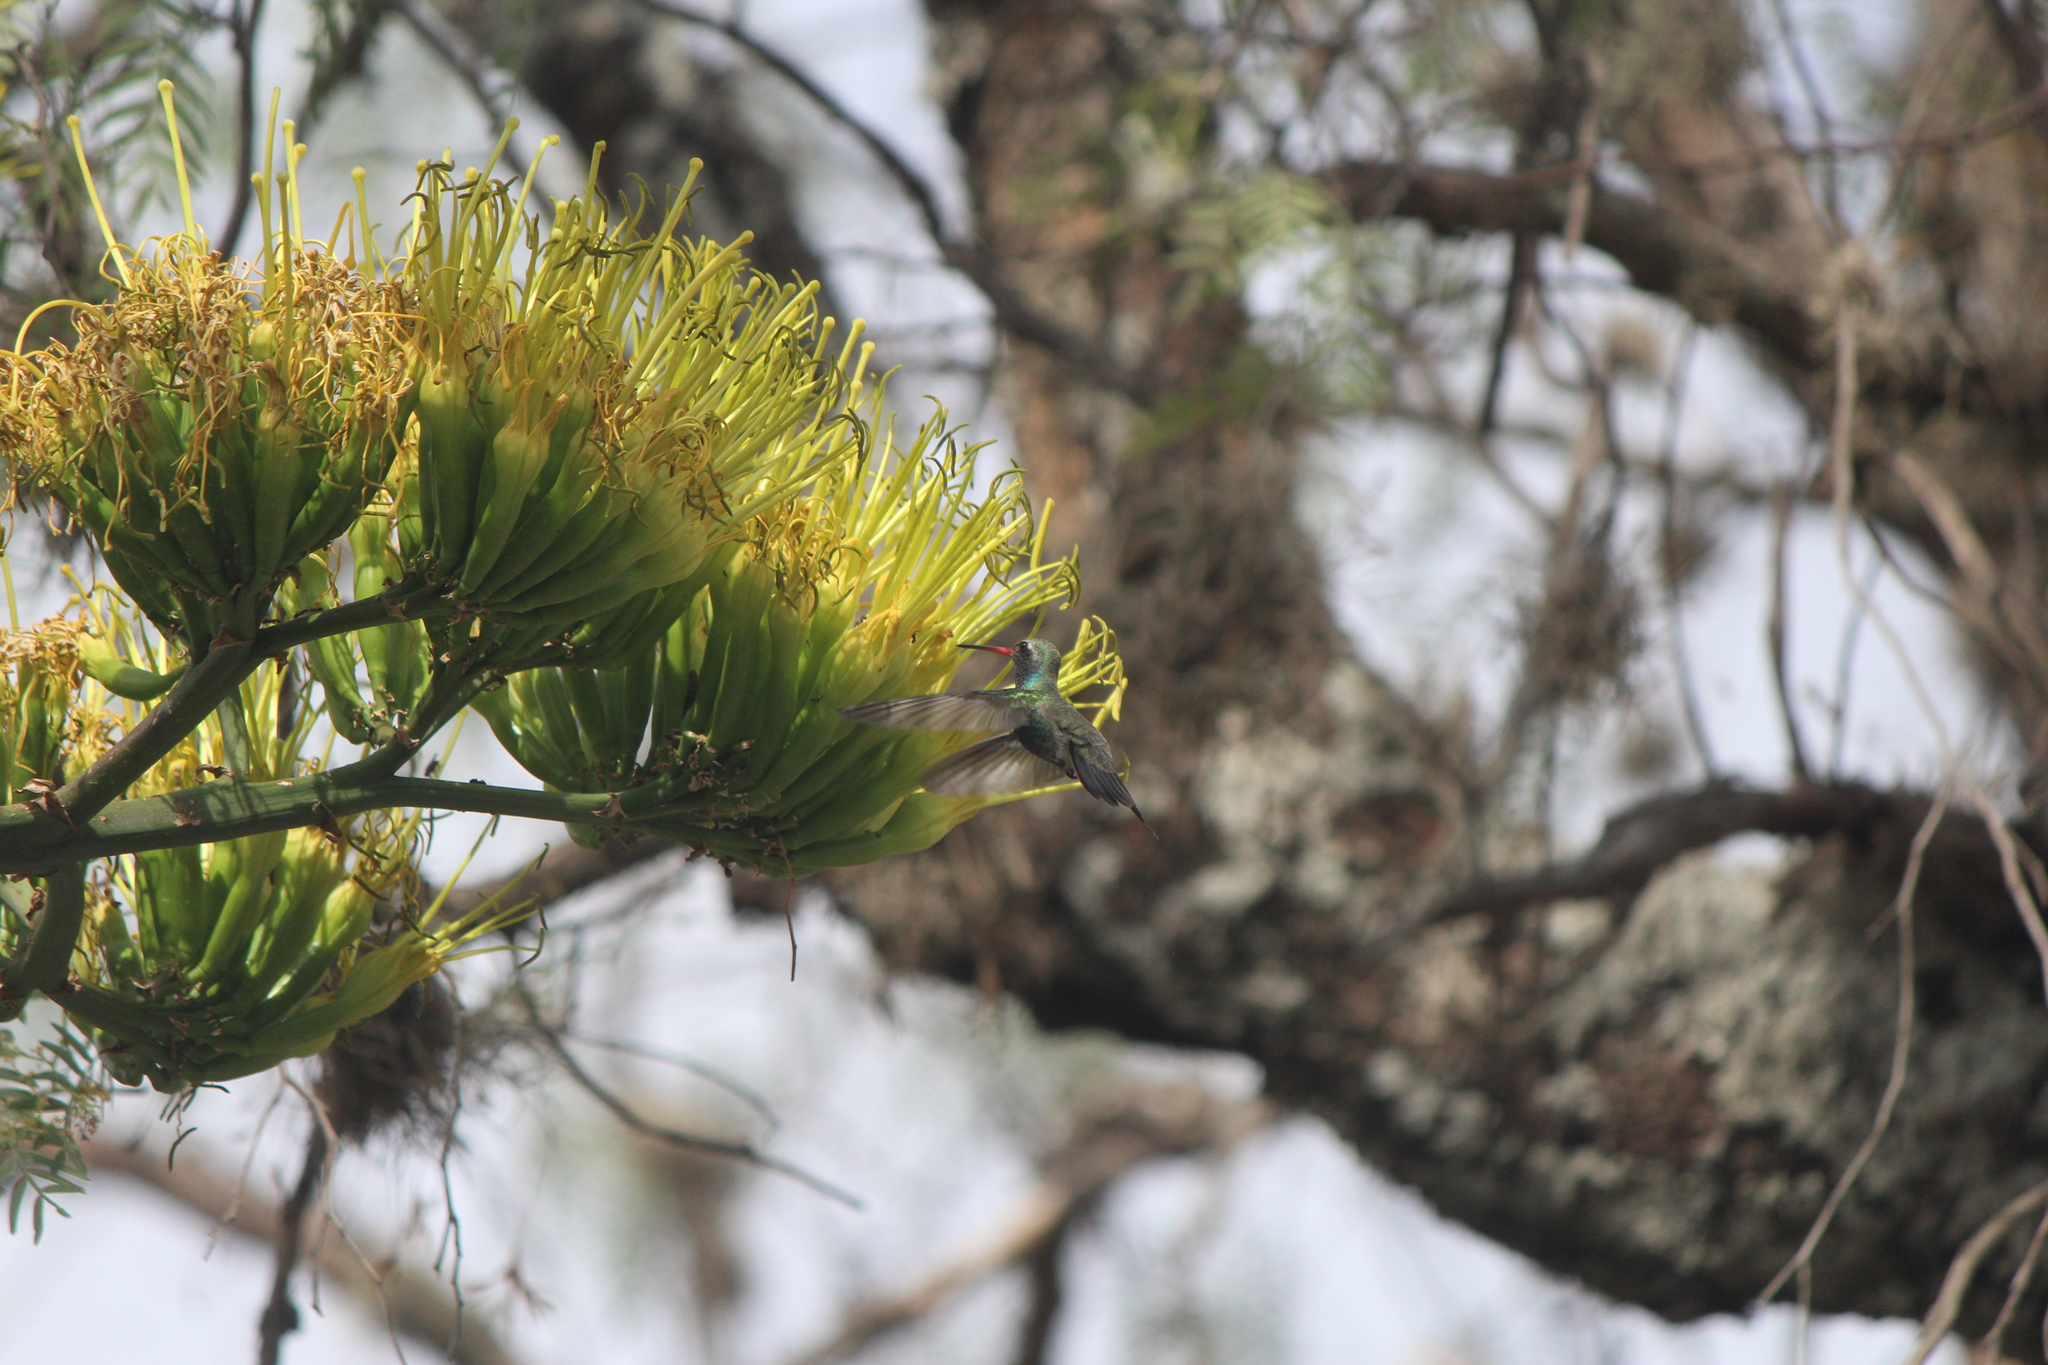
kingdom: Animalia
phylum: Chordata
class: Aves
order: Apodiformes
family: Trochilidae
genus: Cynanthus
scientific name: Cynanthus latirostris
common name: Broad-billed hummingbird
